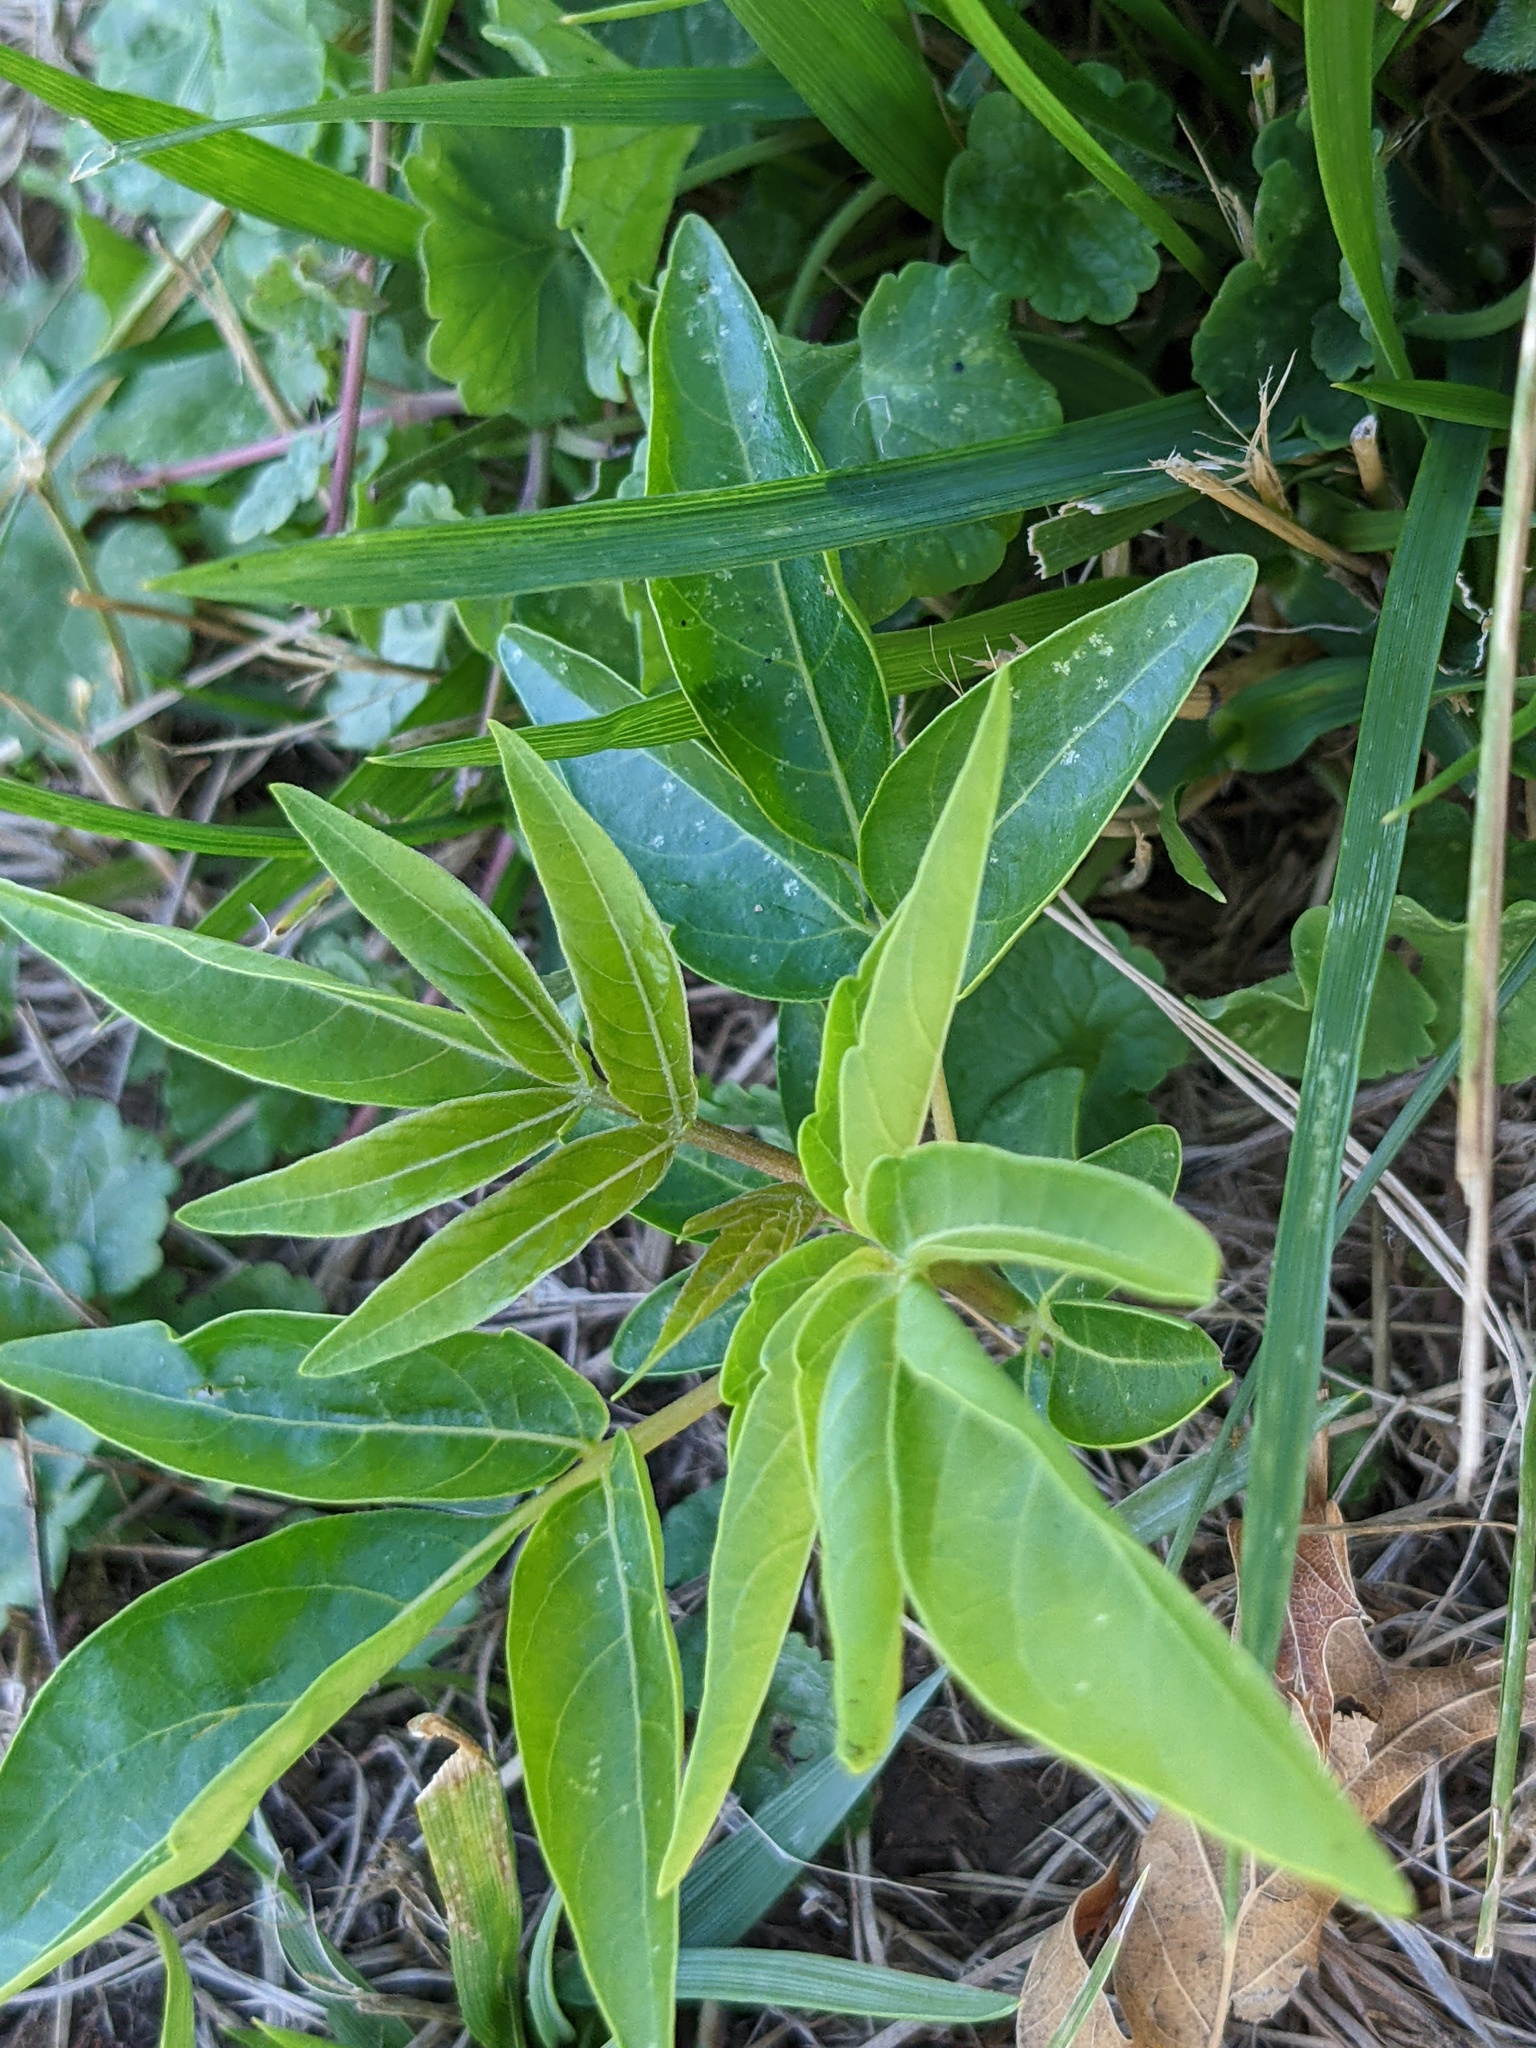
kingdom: Plantae
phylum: Tracheophyta
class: Magnoliopsida
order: Sapindales
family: Simaroubaceae
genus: Ailanthus
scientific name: Ailanthus altissima
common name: Tree-of-heaven
